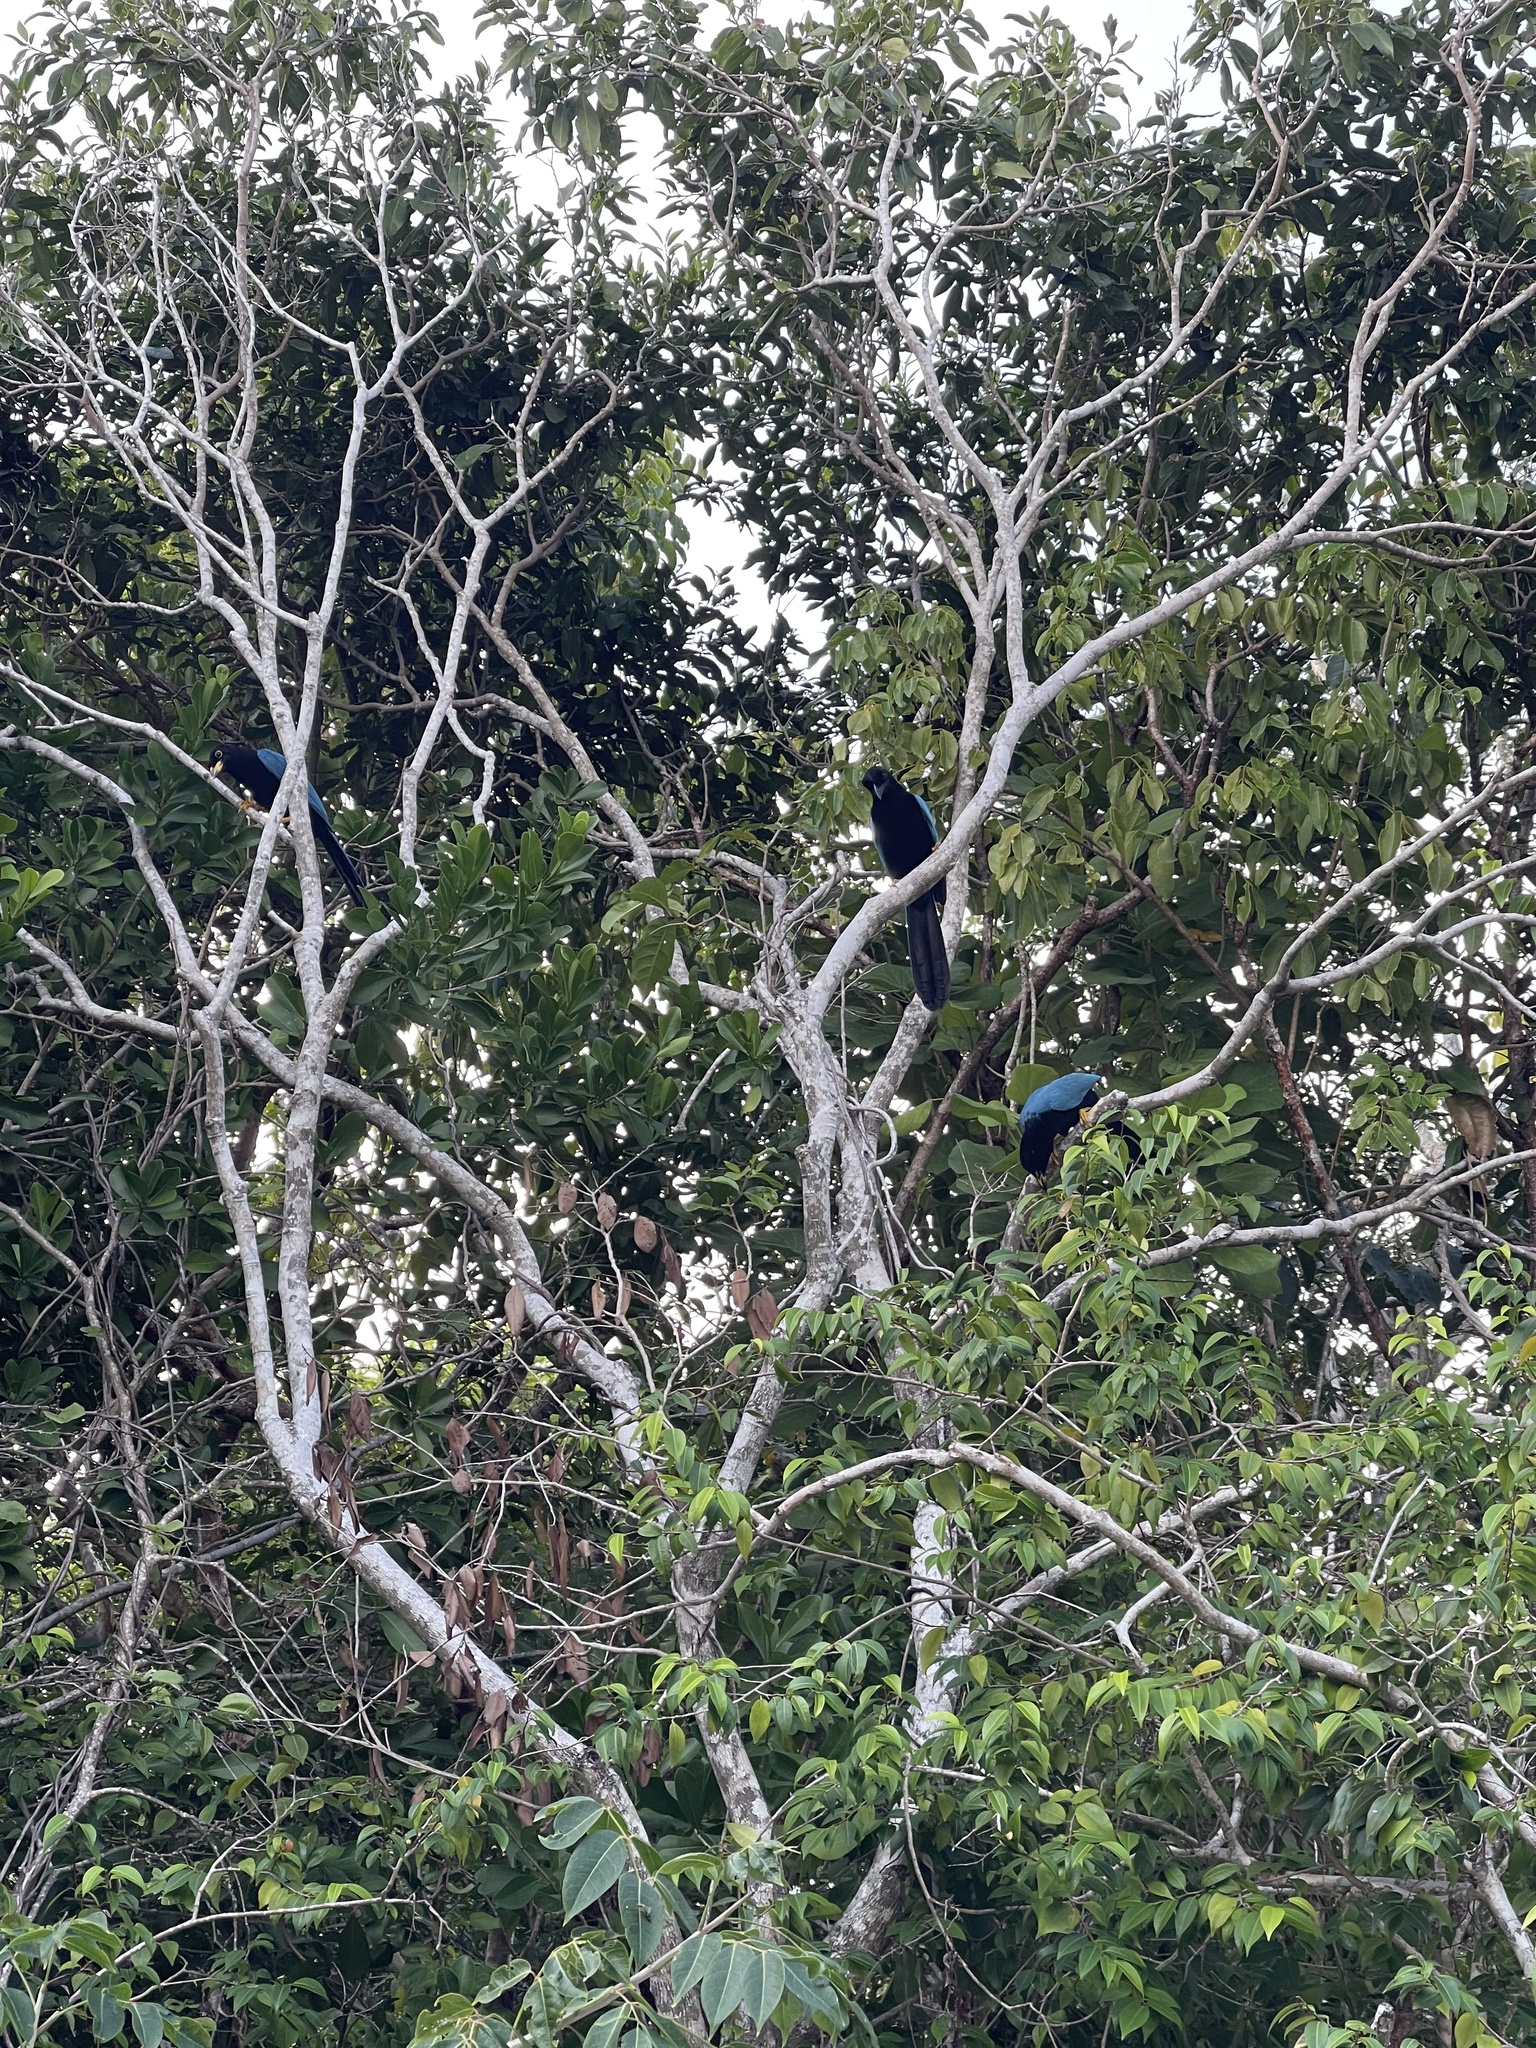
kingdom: Animalia
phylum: Chordata
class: Aves
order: Passeriformes
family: Corvidae
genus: Cyanocorax
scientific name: Cyanocorax yucatanicus
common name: Yucatan jay
